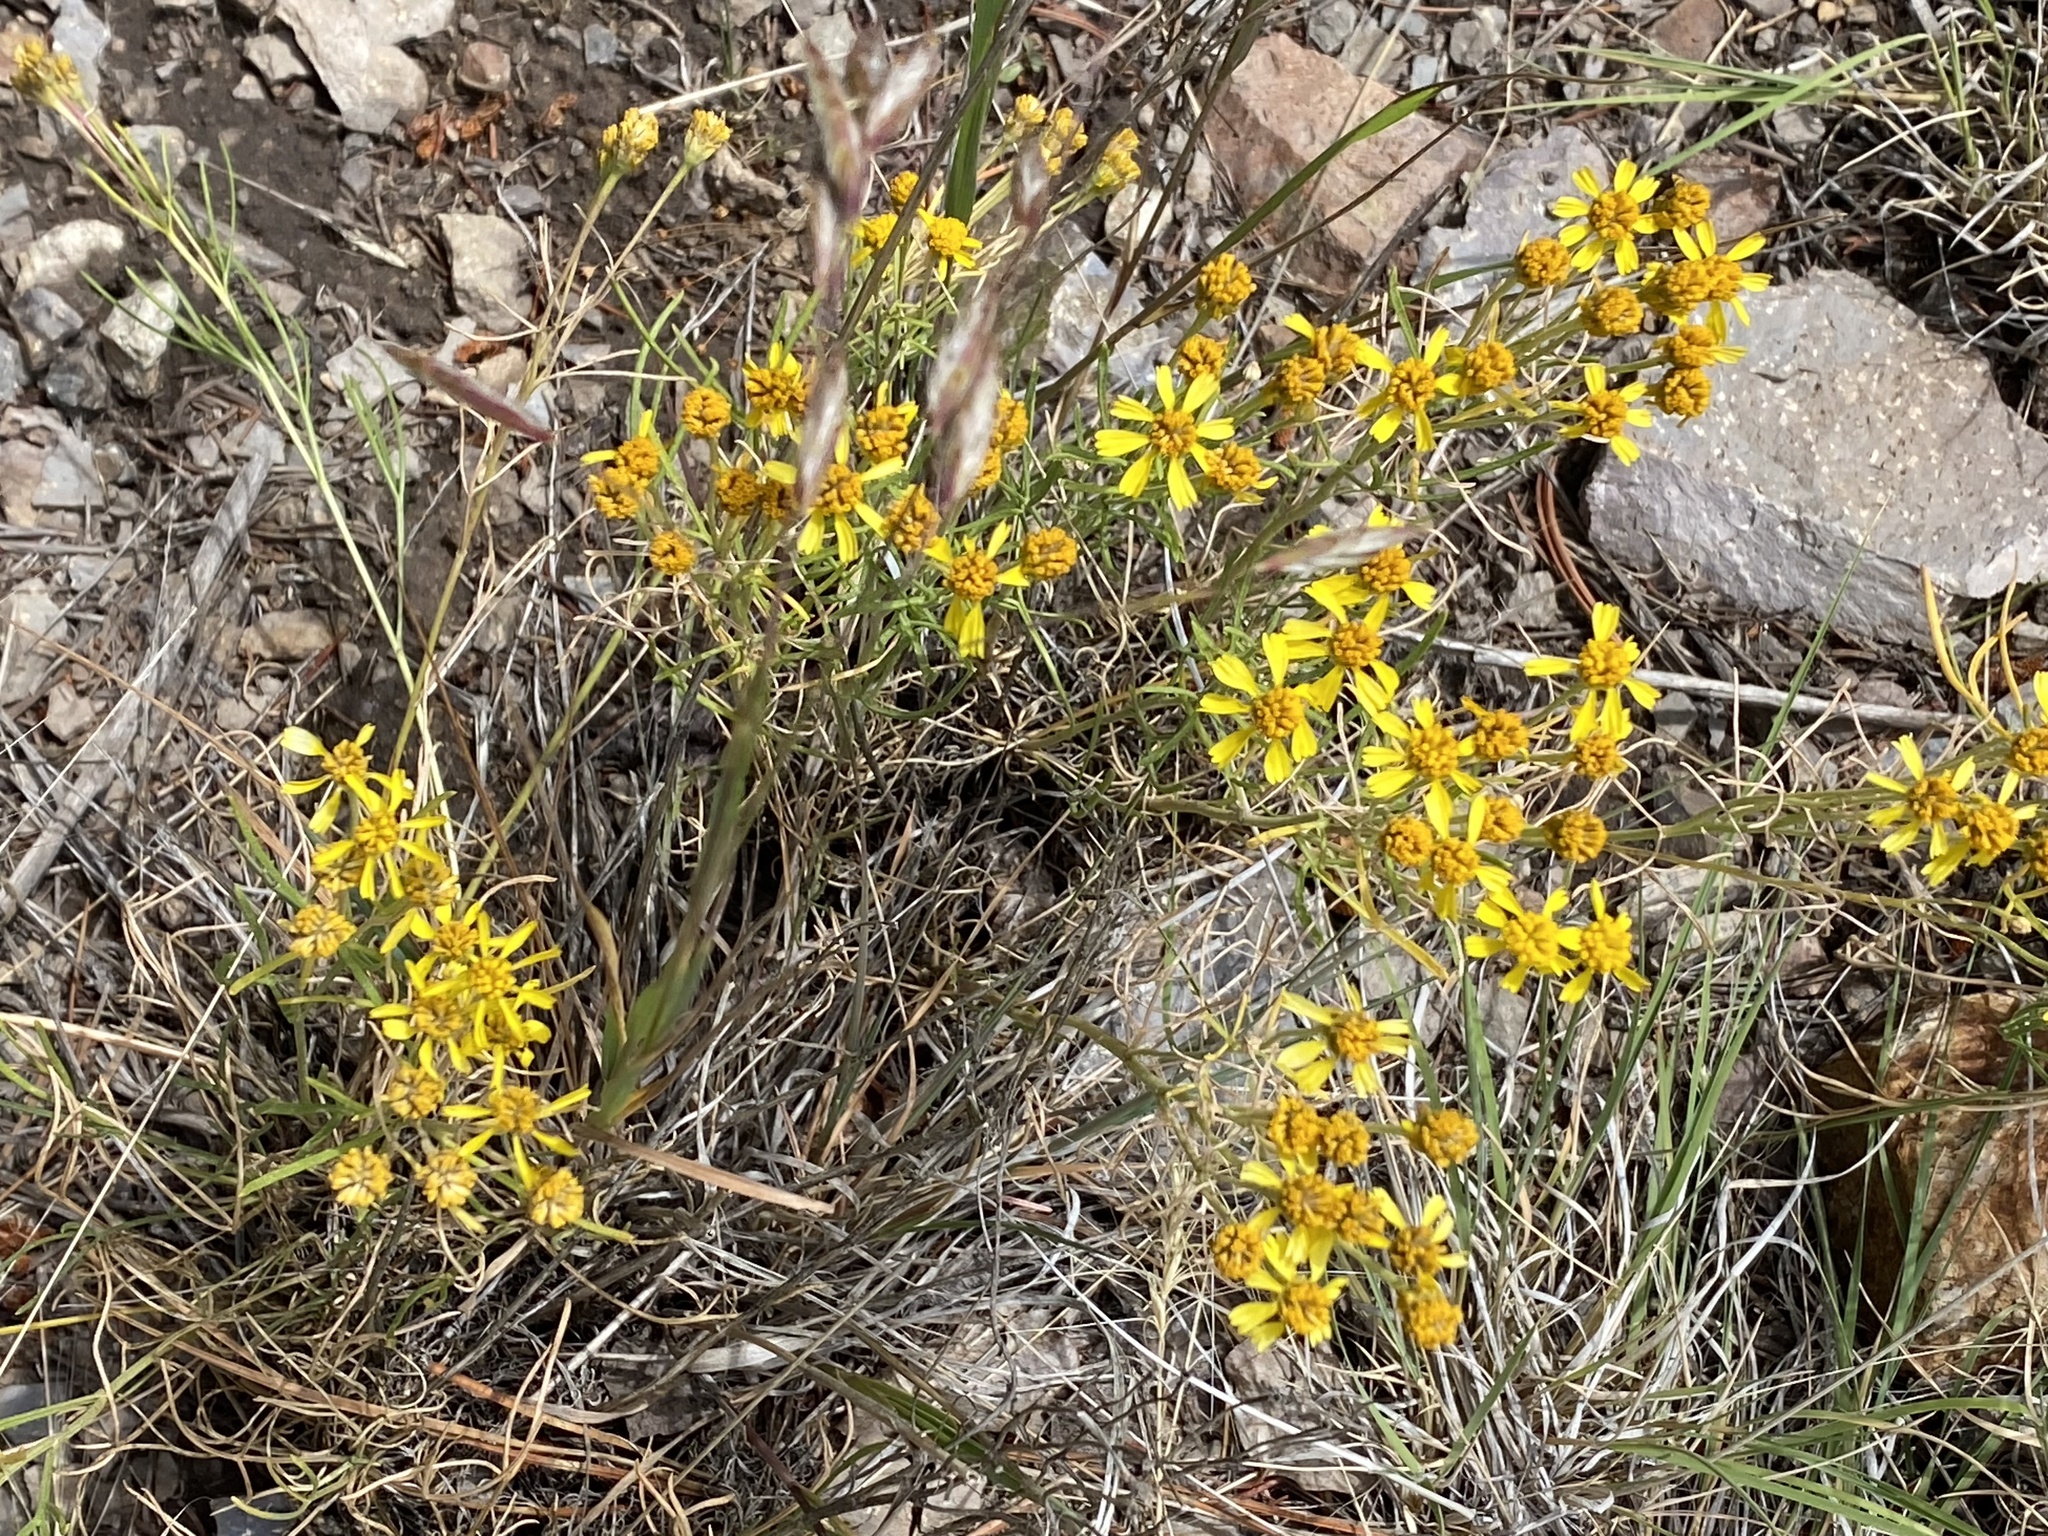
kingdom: Plantae
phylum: Tracheophyta
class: Magnoliopsida
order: Asterales
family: Asteraceae
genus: Hymenoxys
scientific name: Hymenoxys richardsonii
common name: Pingue rubberweed
